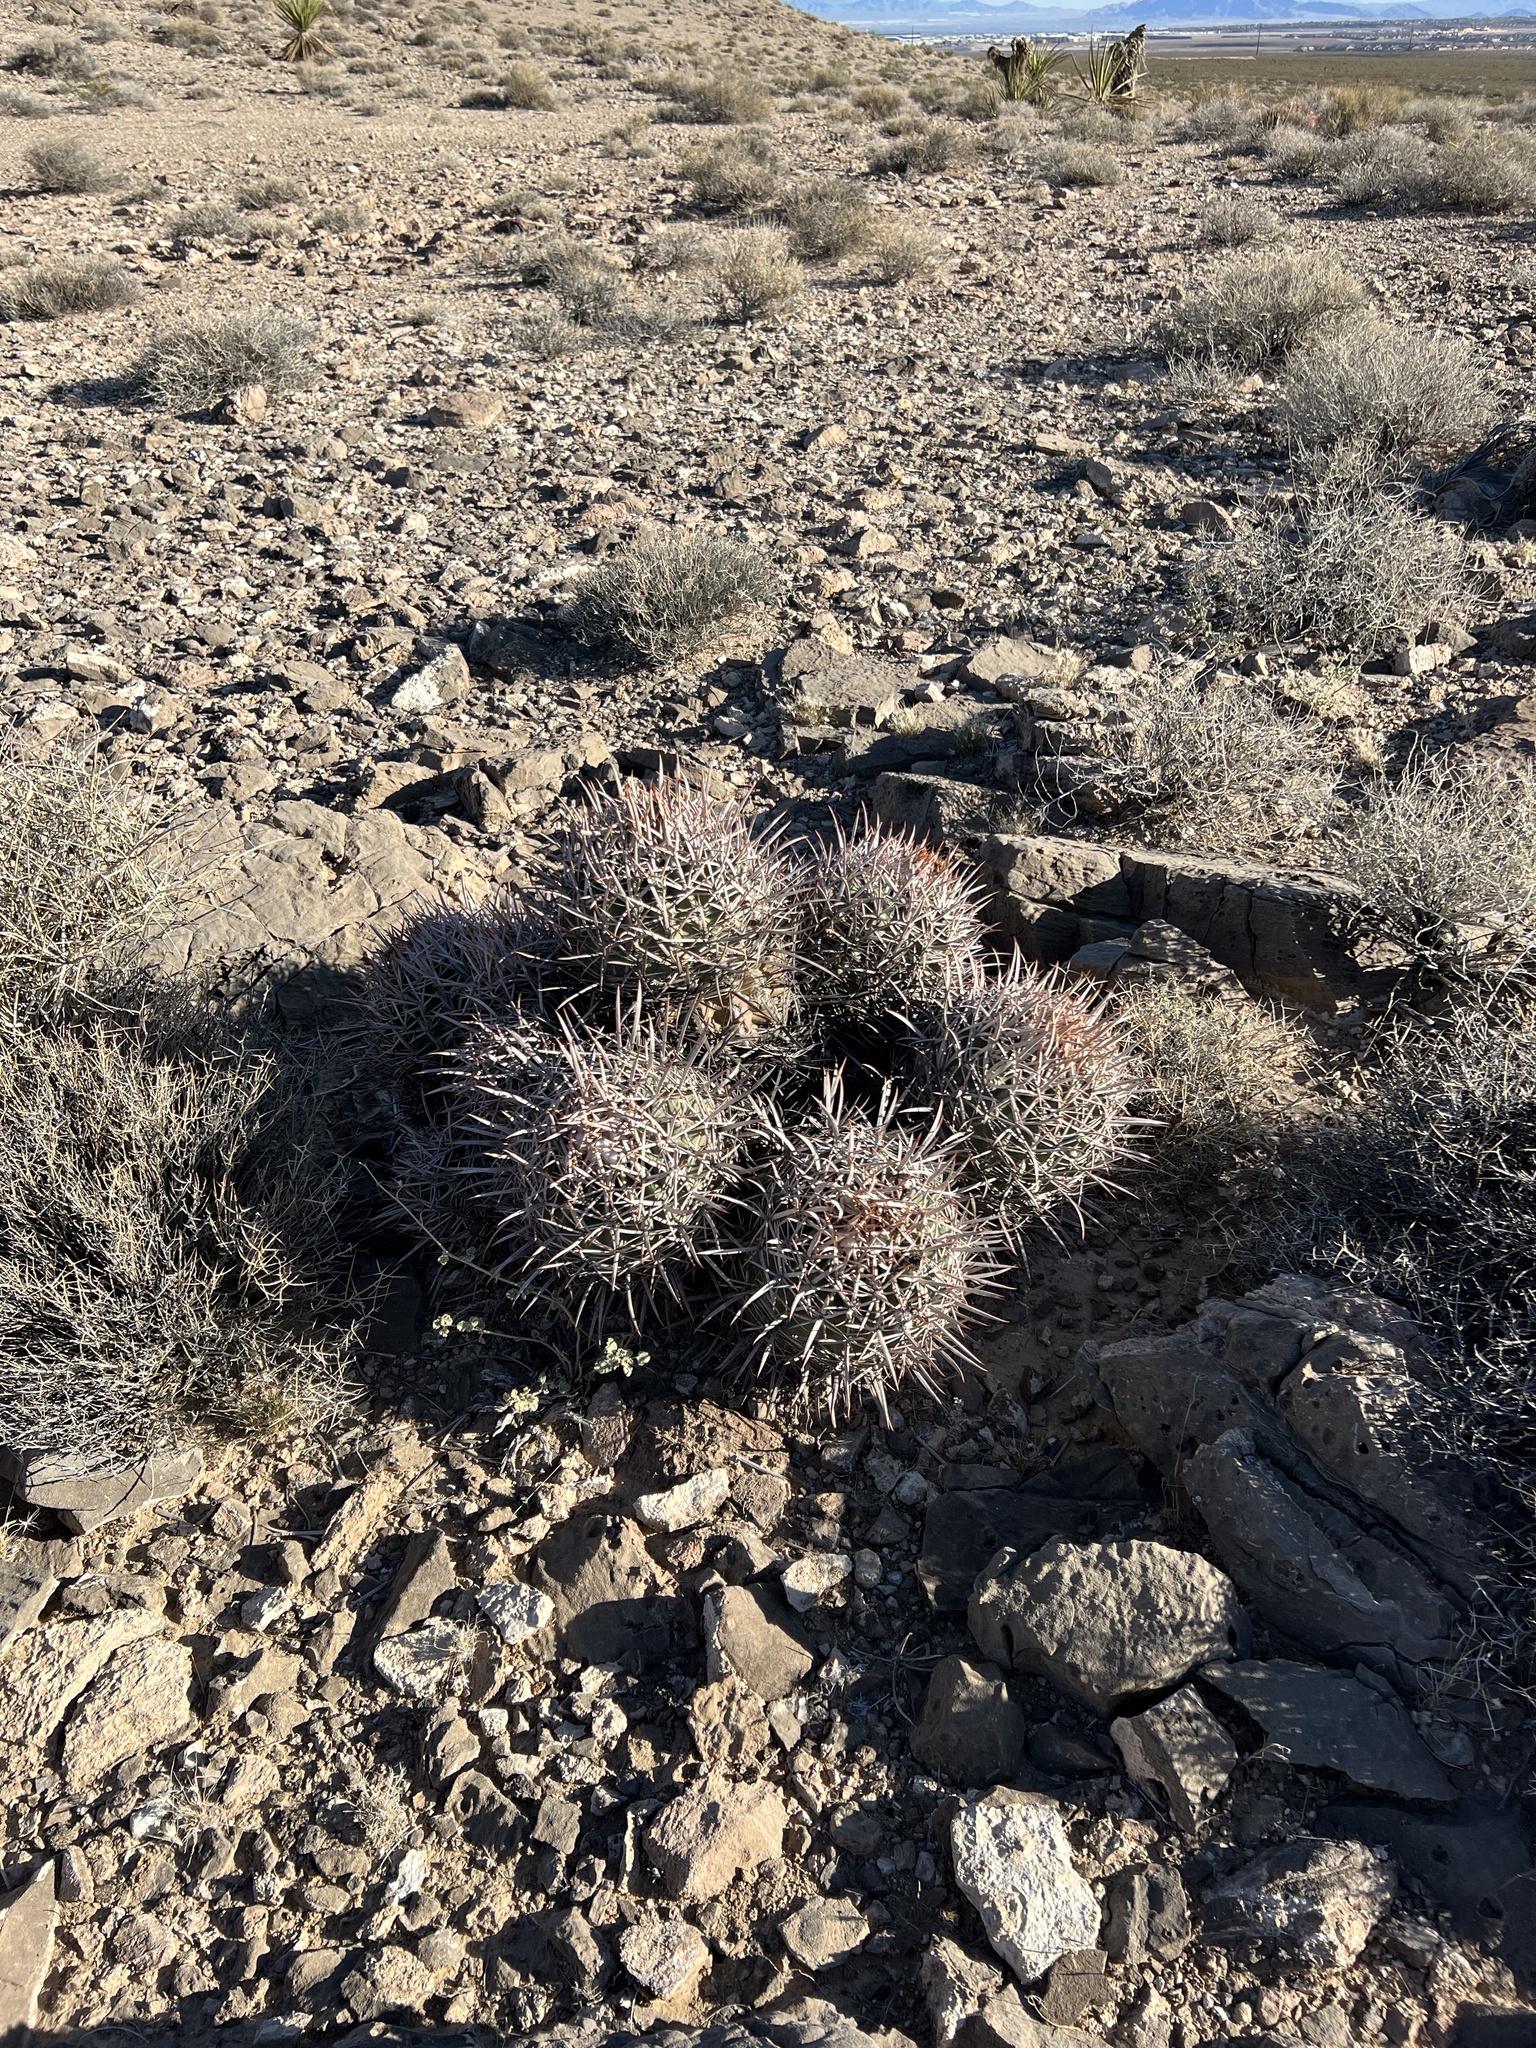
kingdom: Plantae
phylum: Tracheophyta
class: Magnoliopsida
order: Caryophyllales
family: Cactaceae
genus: Echinocactus
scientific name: Echinocactus polycephalus
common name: Cottontop cactus
